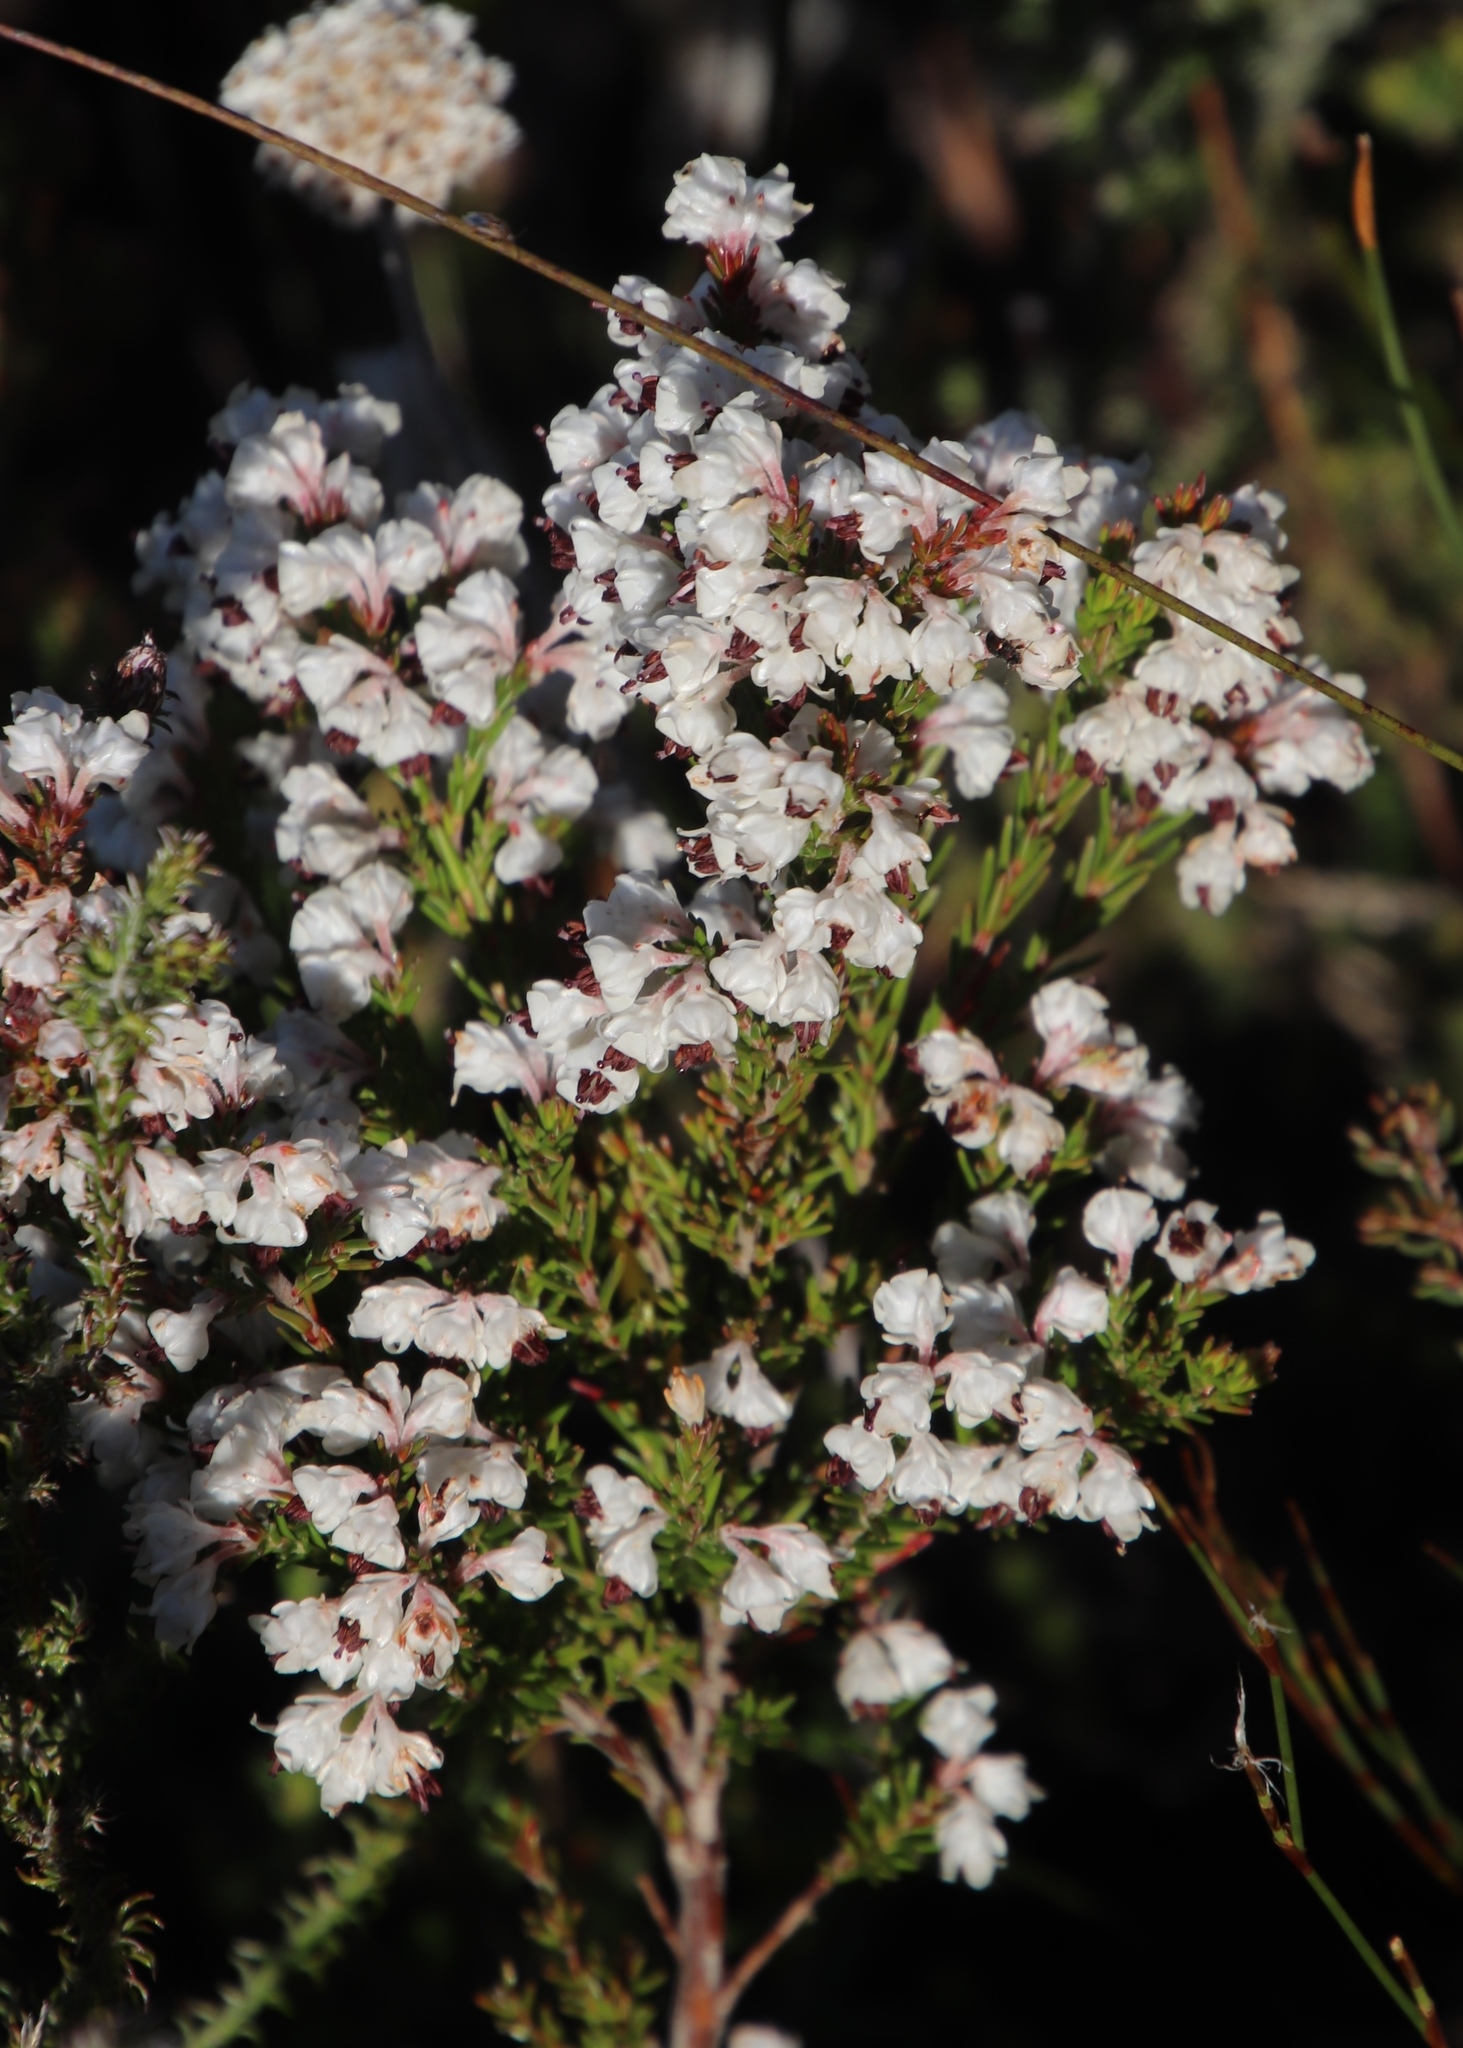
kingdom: Plantae
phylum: Tracheophyta
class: Magnoliopsida
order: Ericales
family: Ericaceae
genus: Erica
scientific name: Erica calycina
